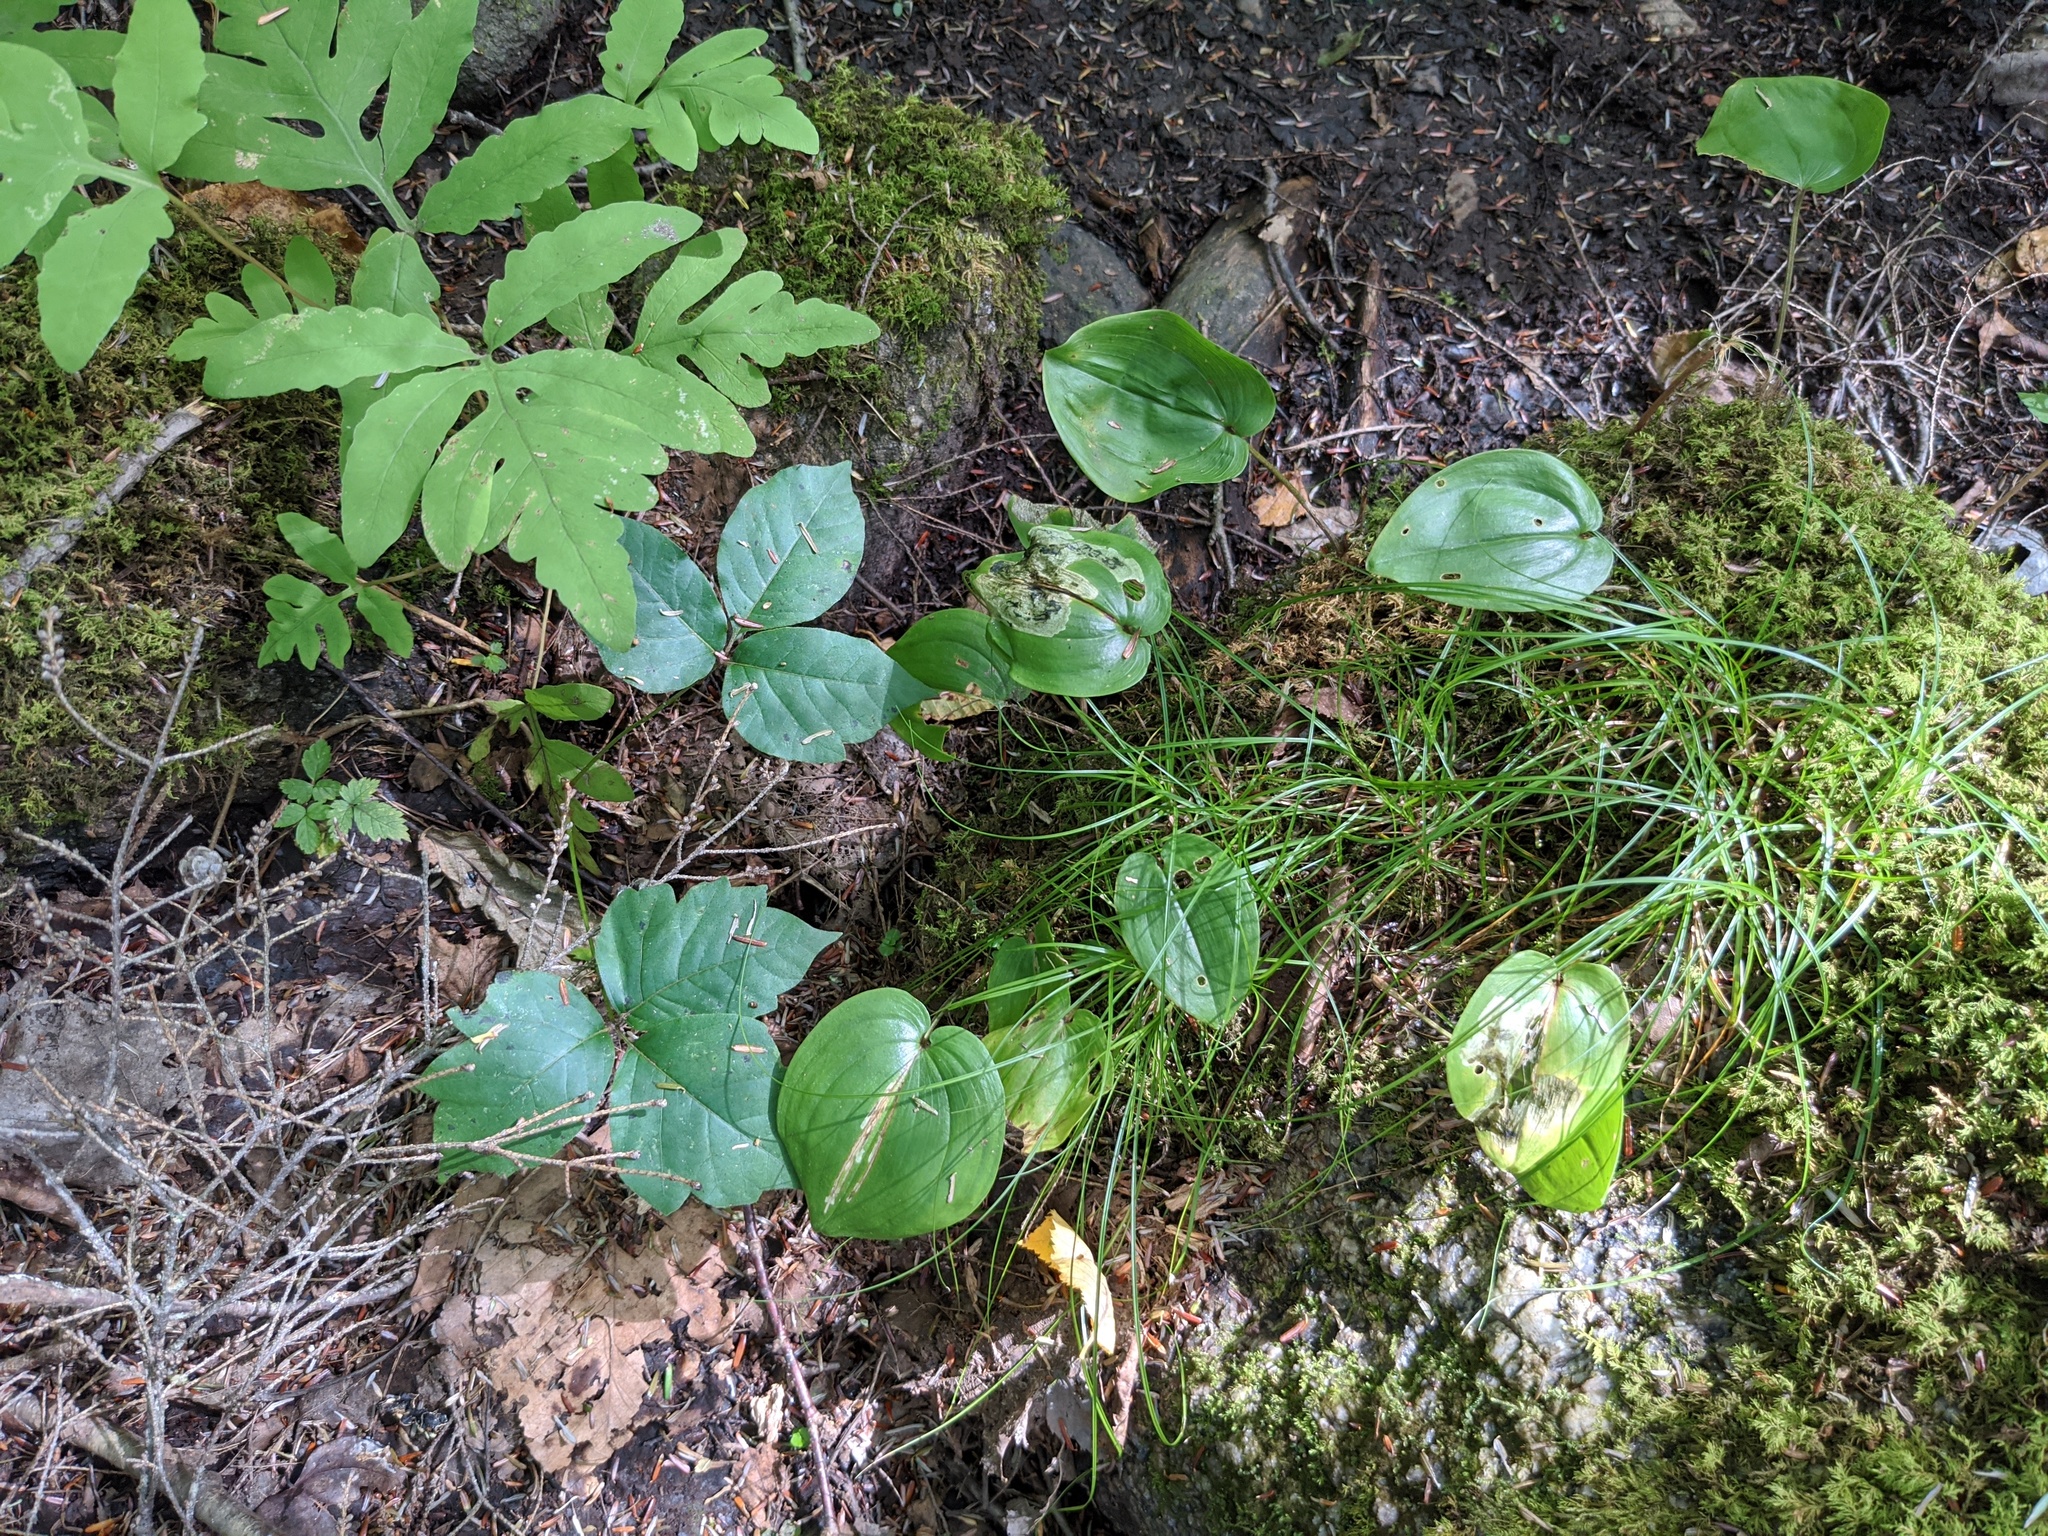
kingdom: Plantae
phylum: Tracheophyta
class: Liliopsida
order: Asparagales
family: Asparagaceae
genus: Maianthemum
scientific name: Maianthemum canadense
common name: False lily-of-the-valley
